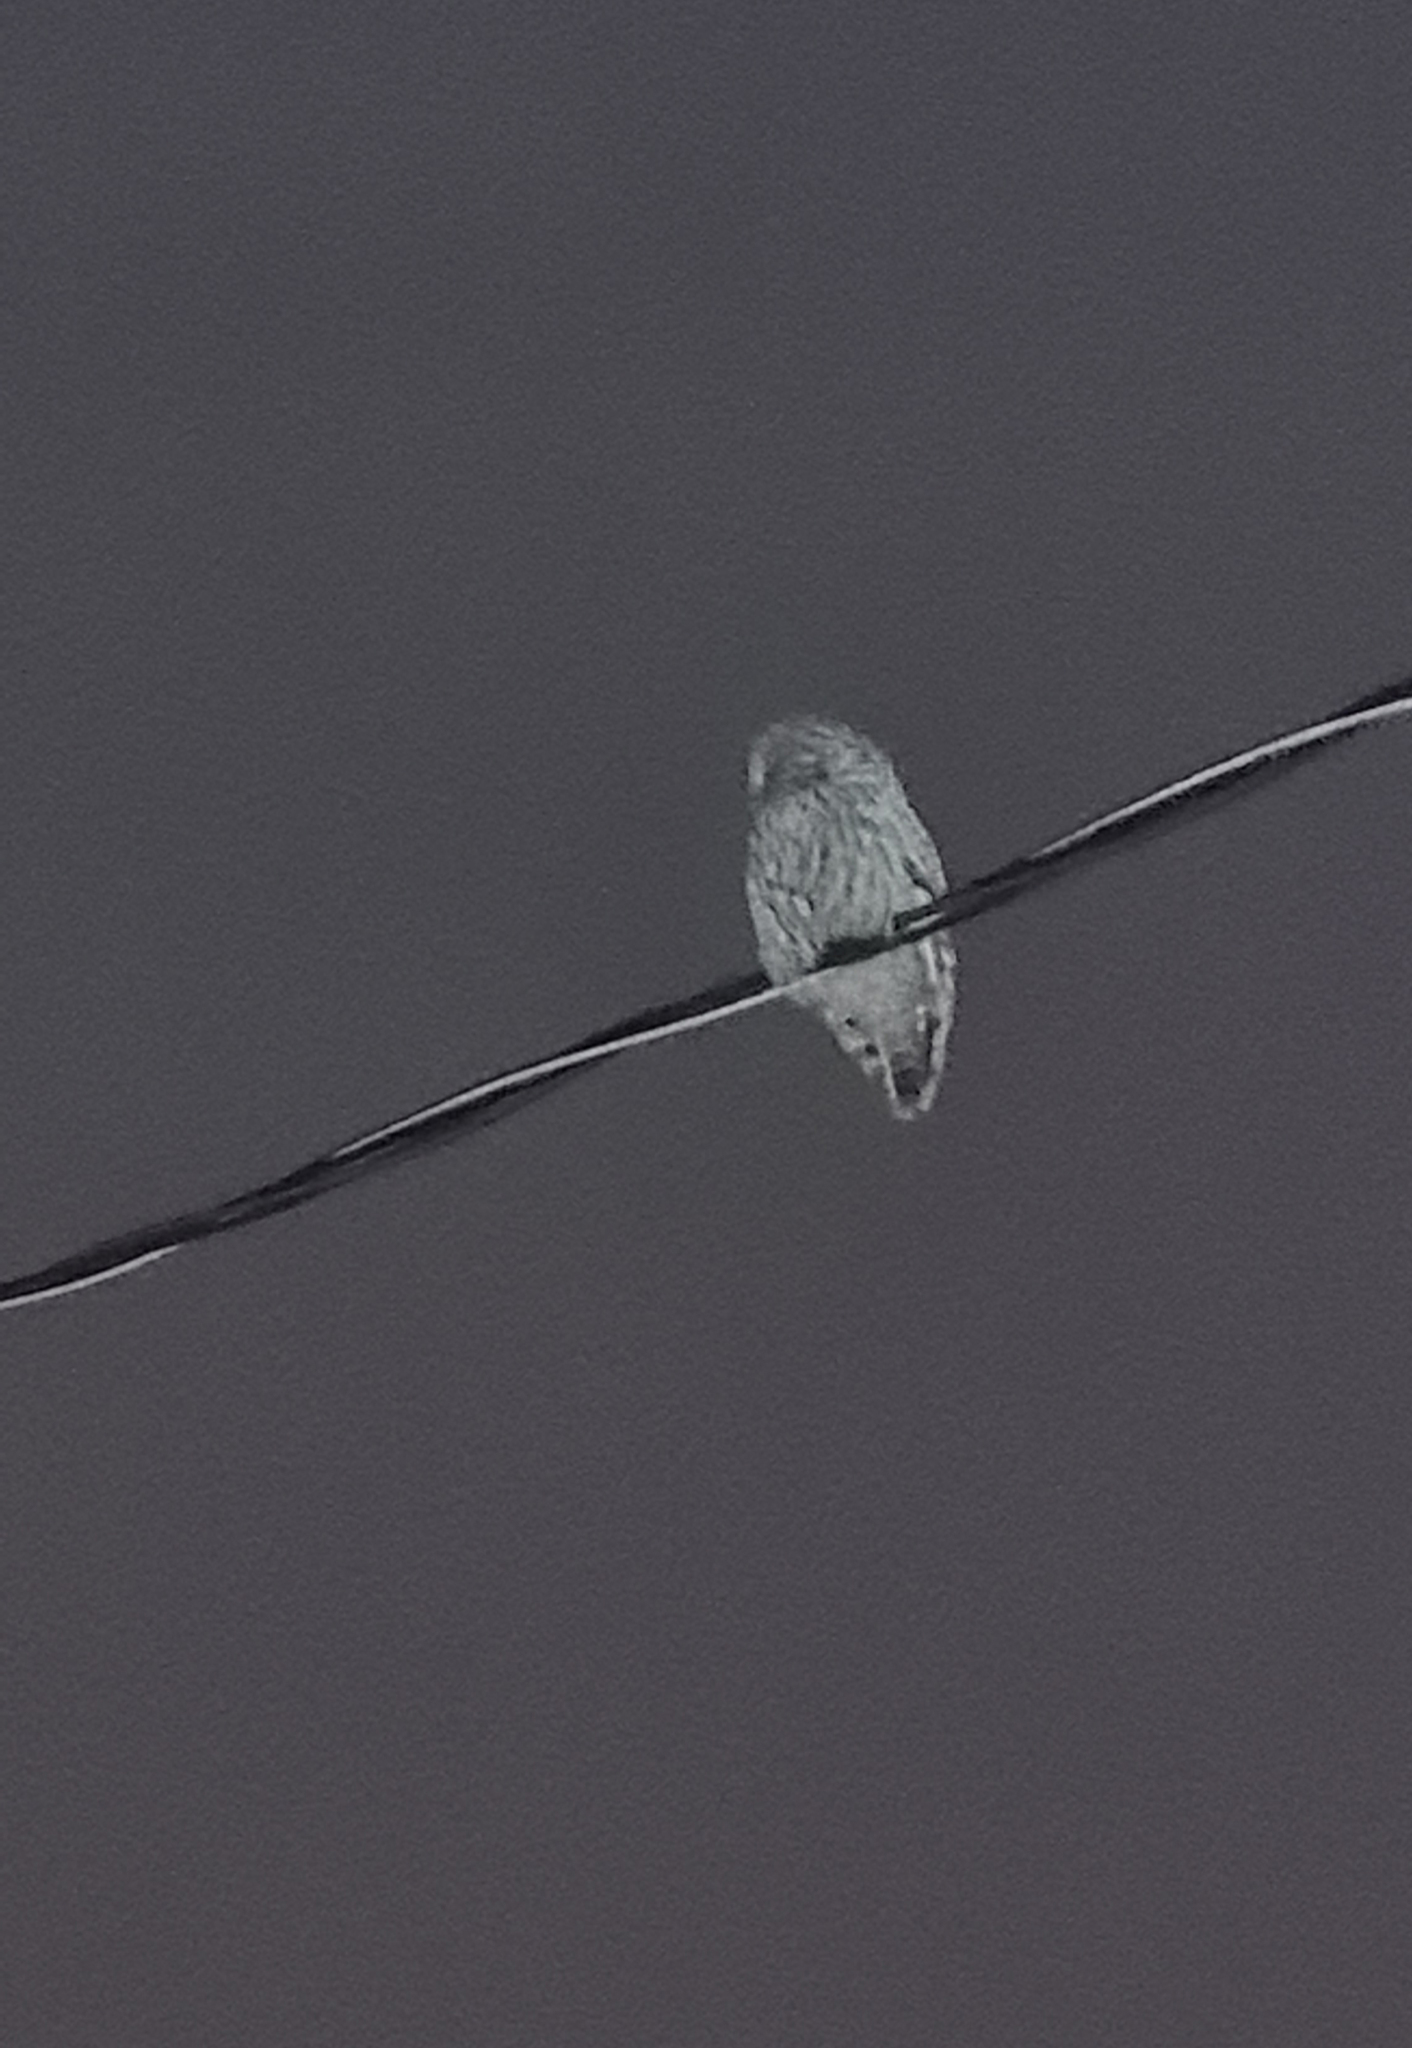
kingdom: Animalia
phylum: Chordata
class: Aves
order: Strigiformes
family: Strigidae
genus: Strix
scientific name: Strix uralensis
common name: Ural owl
